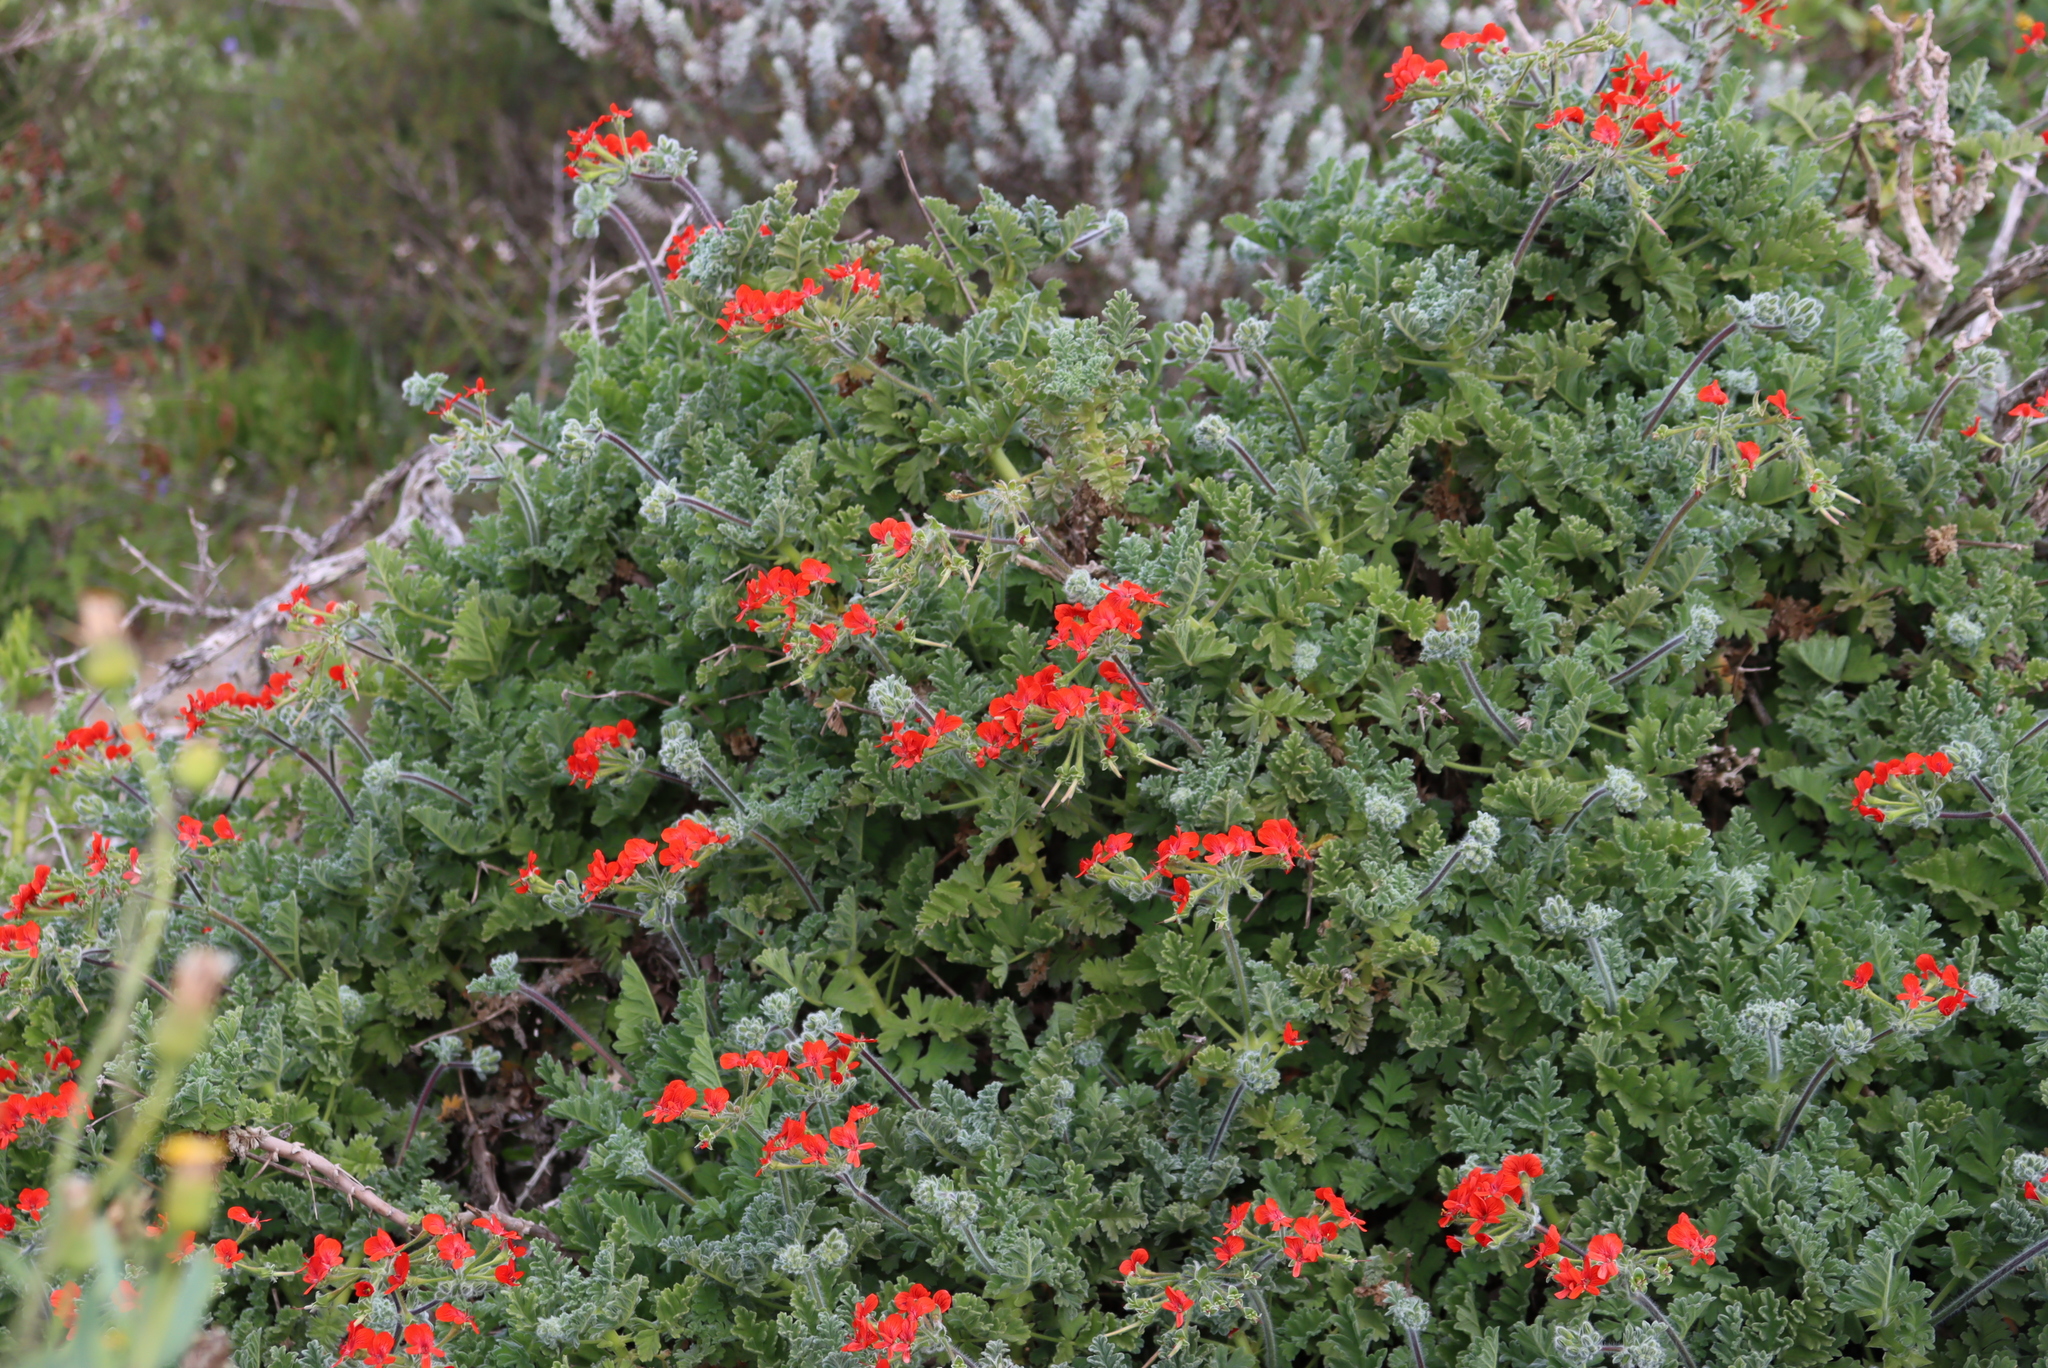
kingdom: Plantae
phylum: Tracheophyta
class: Magnoliopsida
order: Geraniales
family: Geraniaceae
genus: Pelargonium
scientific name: Pelargonium fulgidum
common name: Celandine-leaf pelargonium
